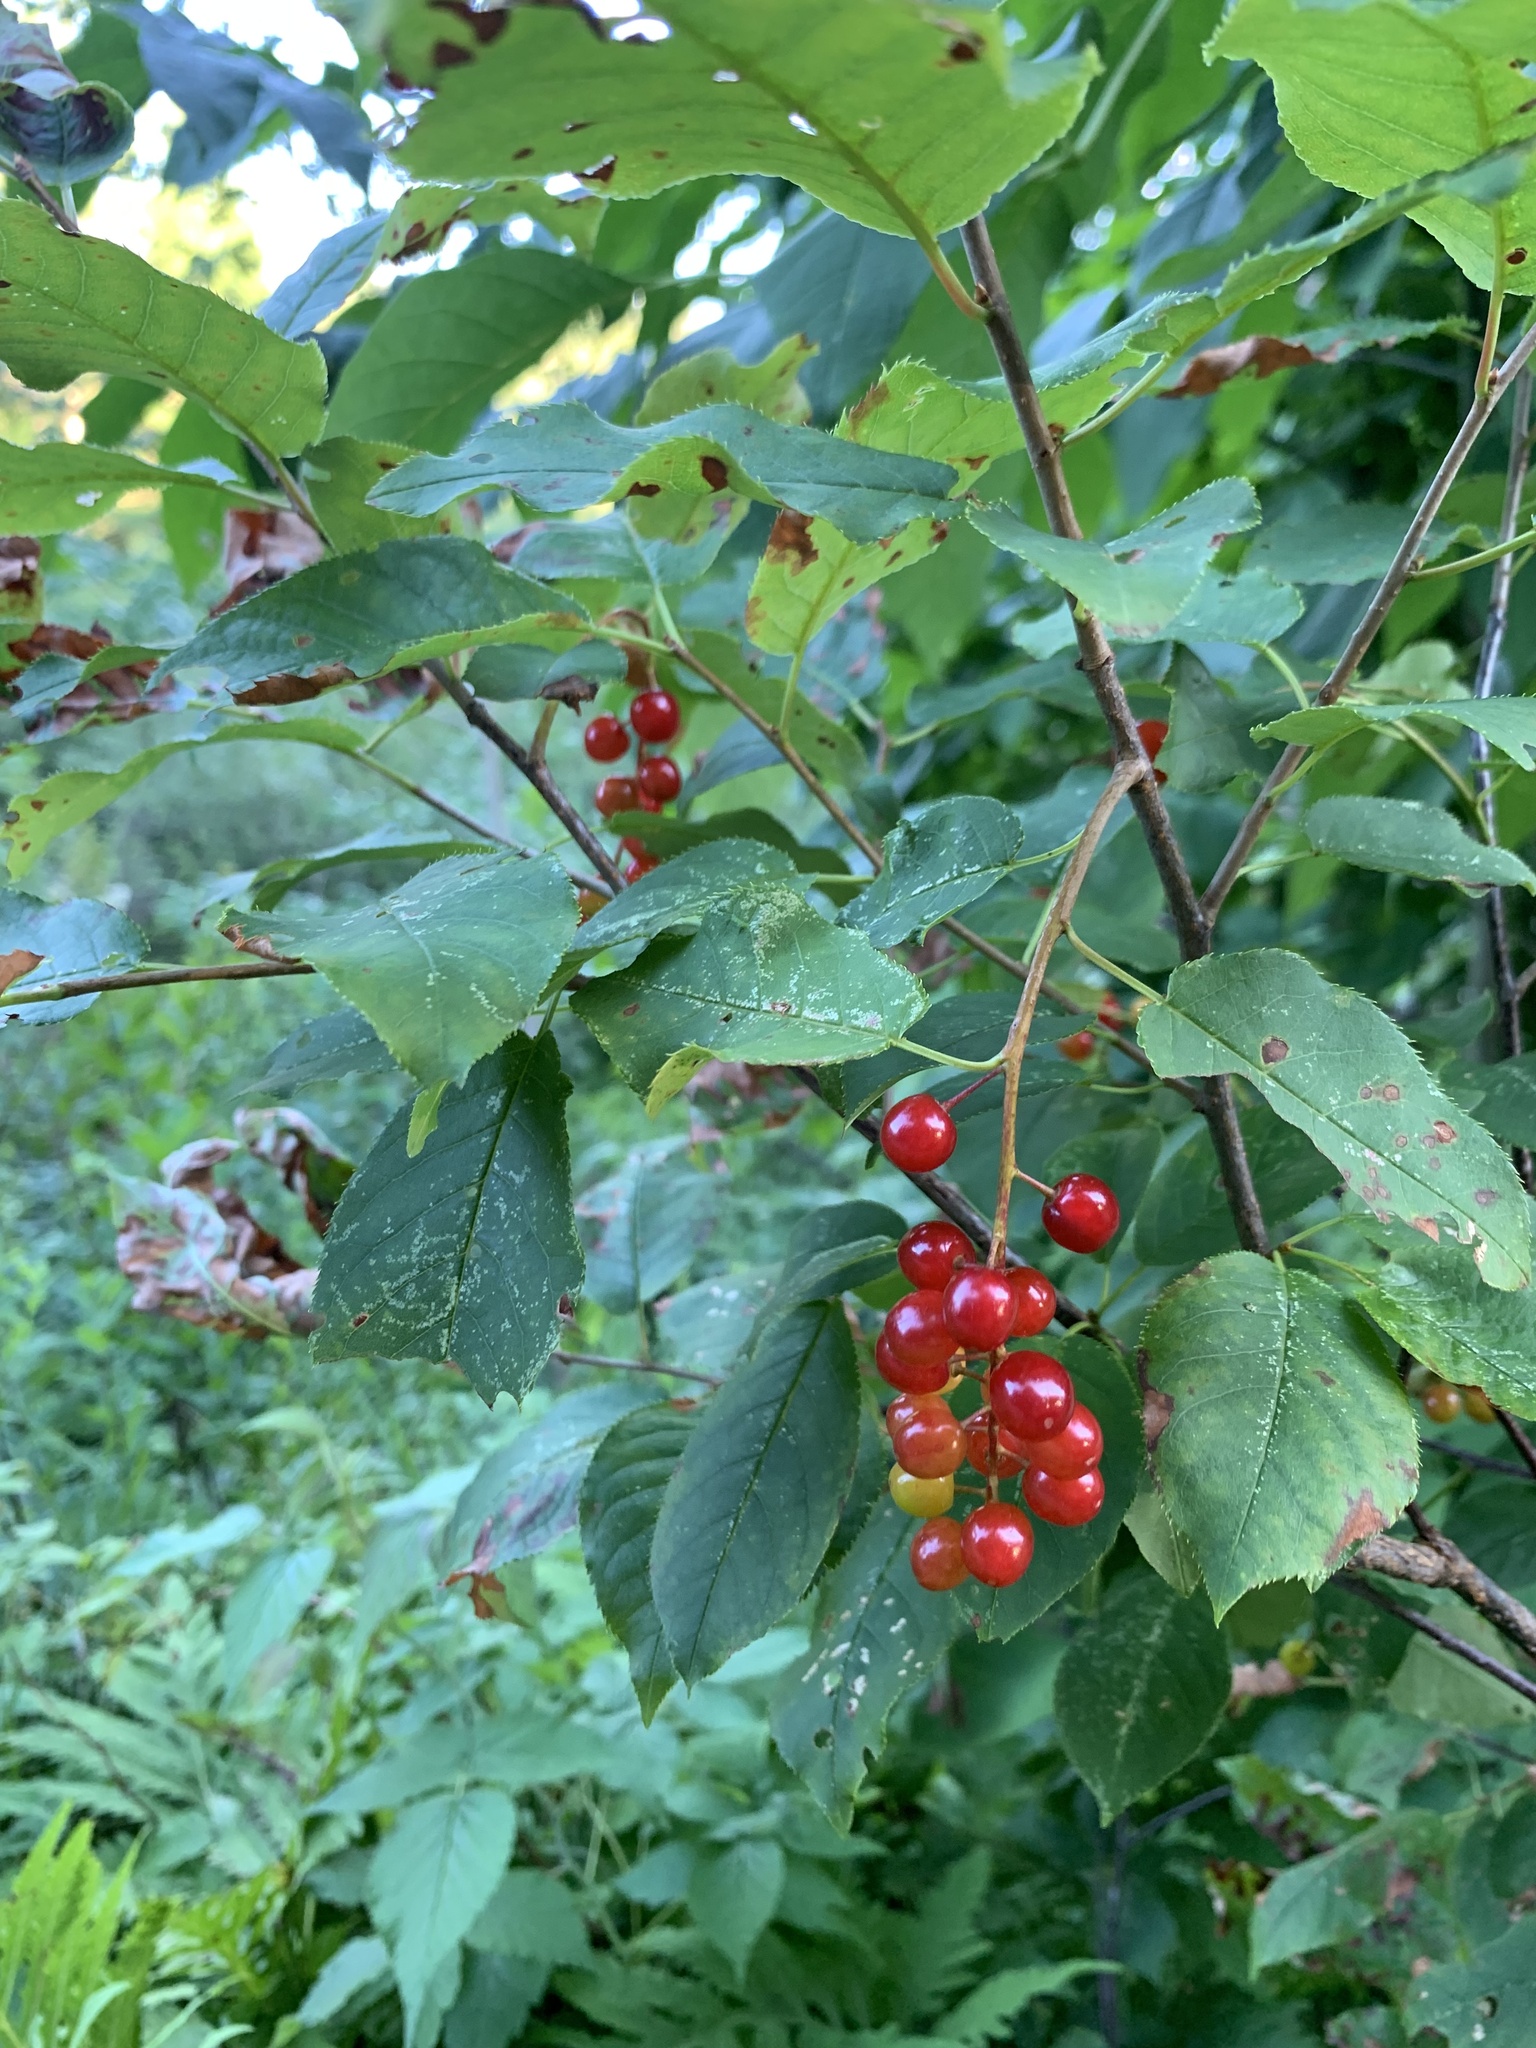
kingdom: Plantae
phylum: Tracheophyta
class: Magnoliopsida
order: Rosales
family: Rosaceae
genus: Prunus
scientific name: Prunus virginiana
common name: Chokecherry
